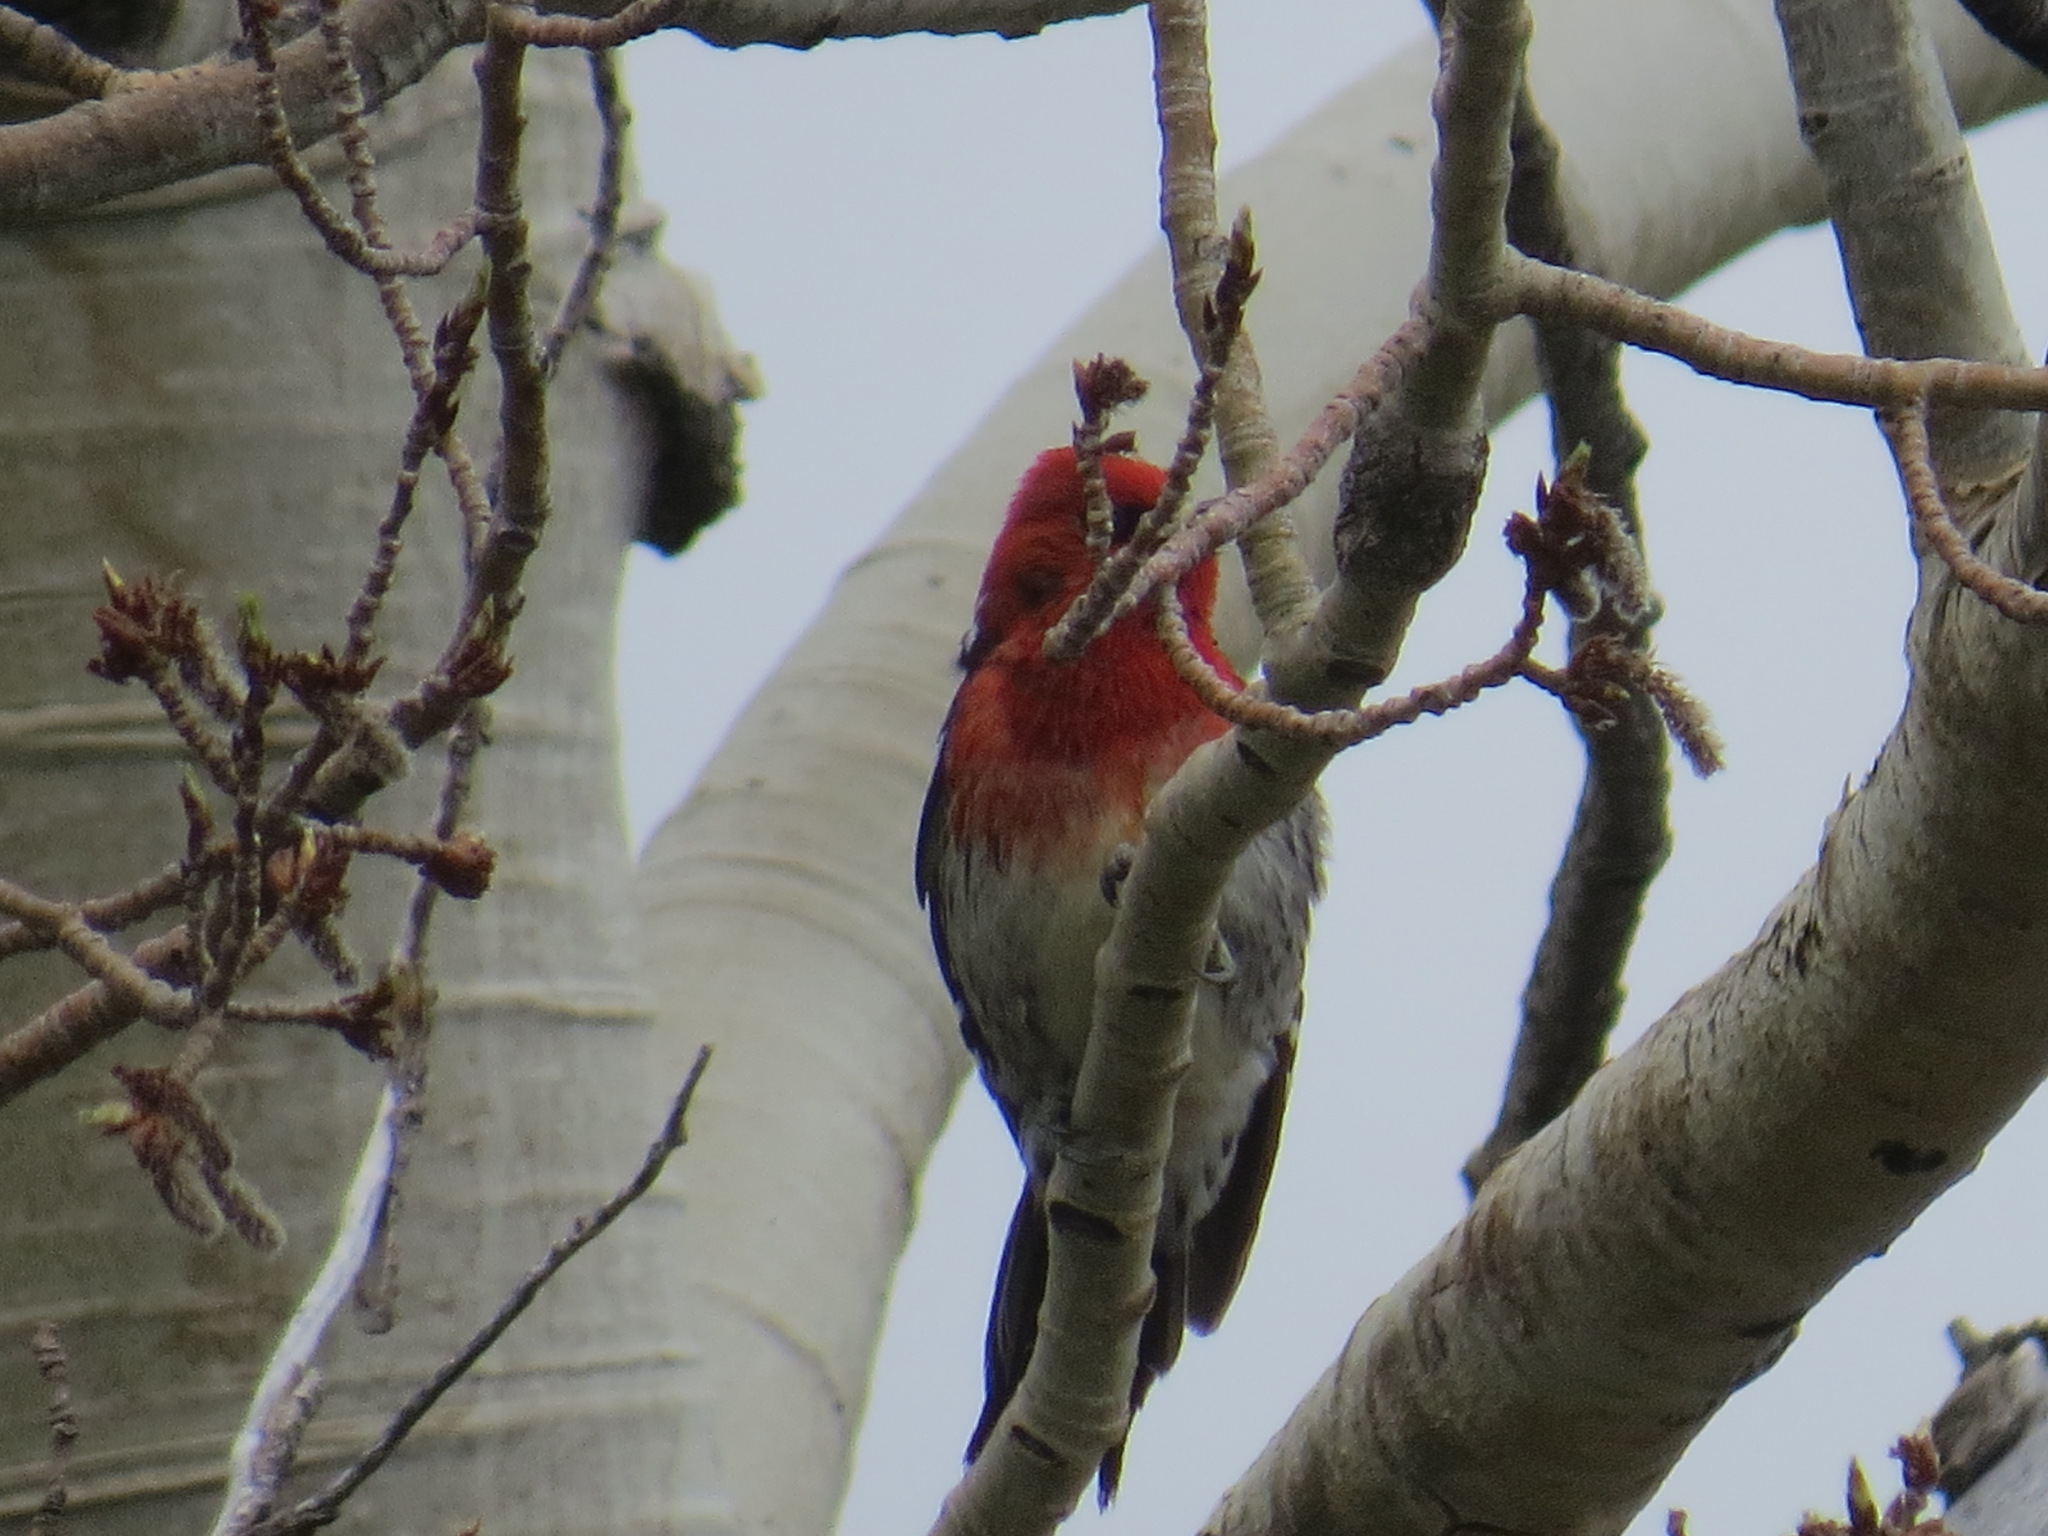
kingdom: Animalia
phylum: Chordata
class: Aves
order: Piciformes
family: Picidae
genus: Sphyrapicus
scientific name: Sphyrapicus ruber
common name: Red-breasted sapsucker
